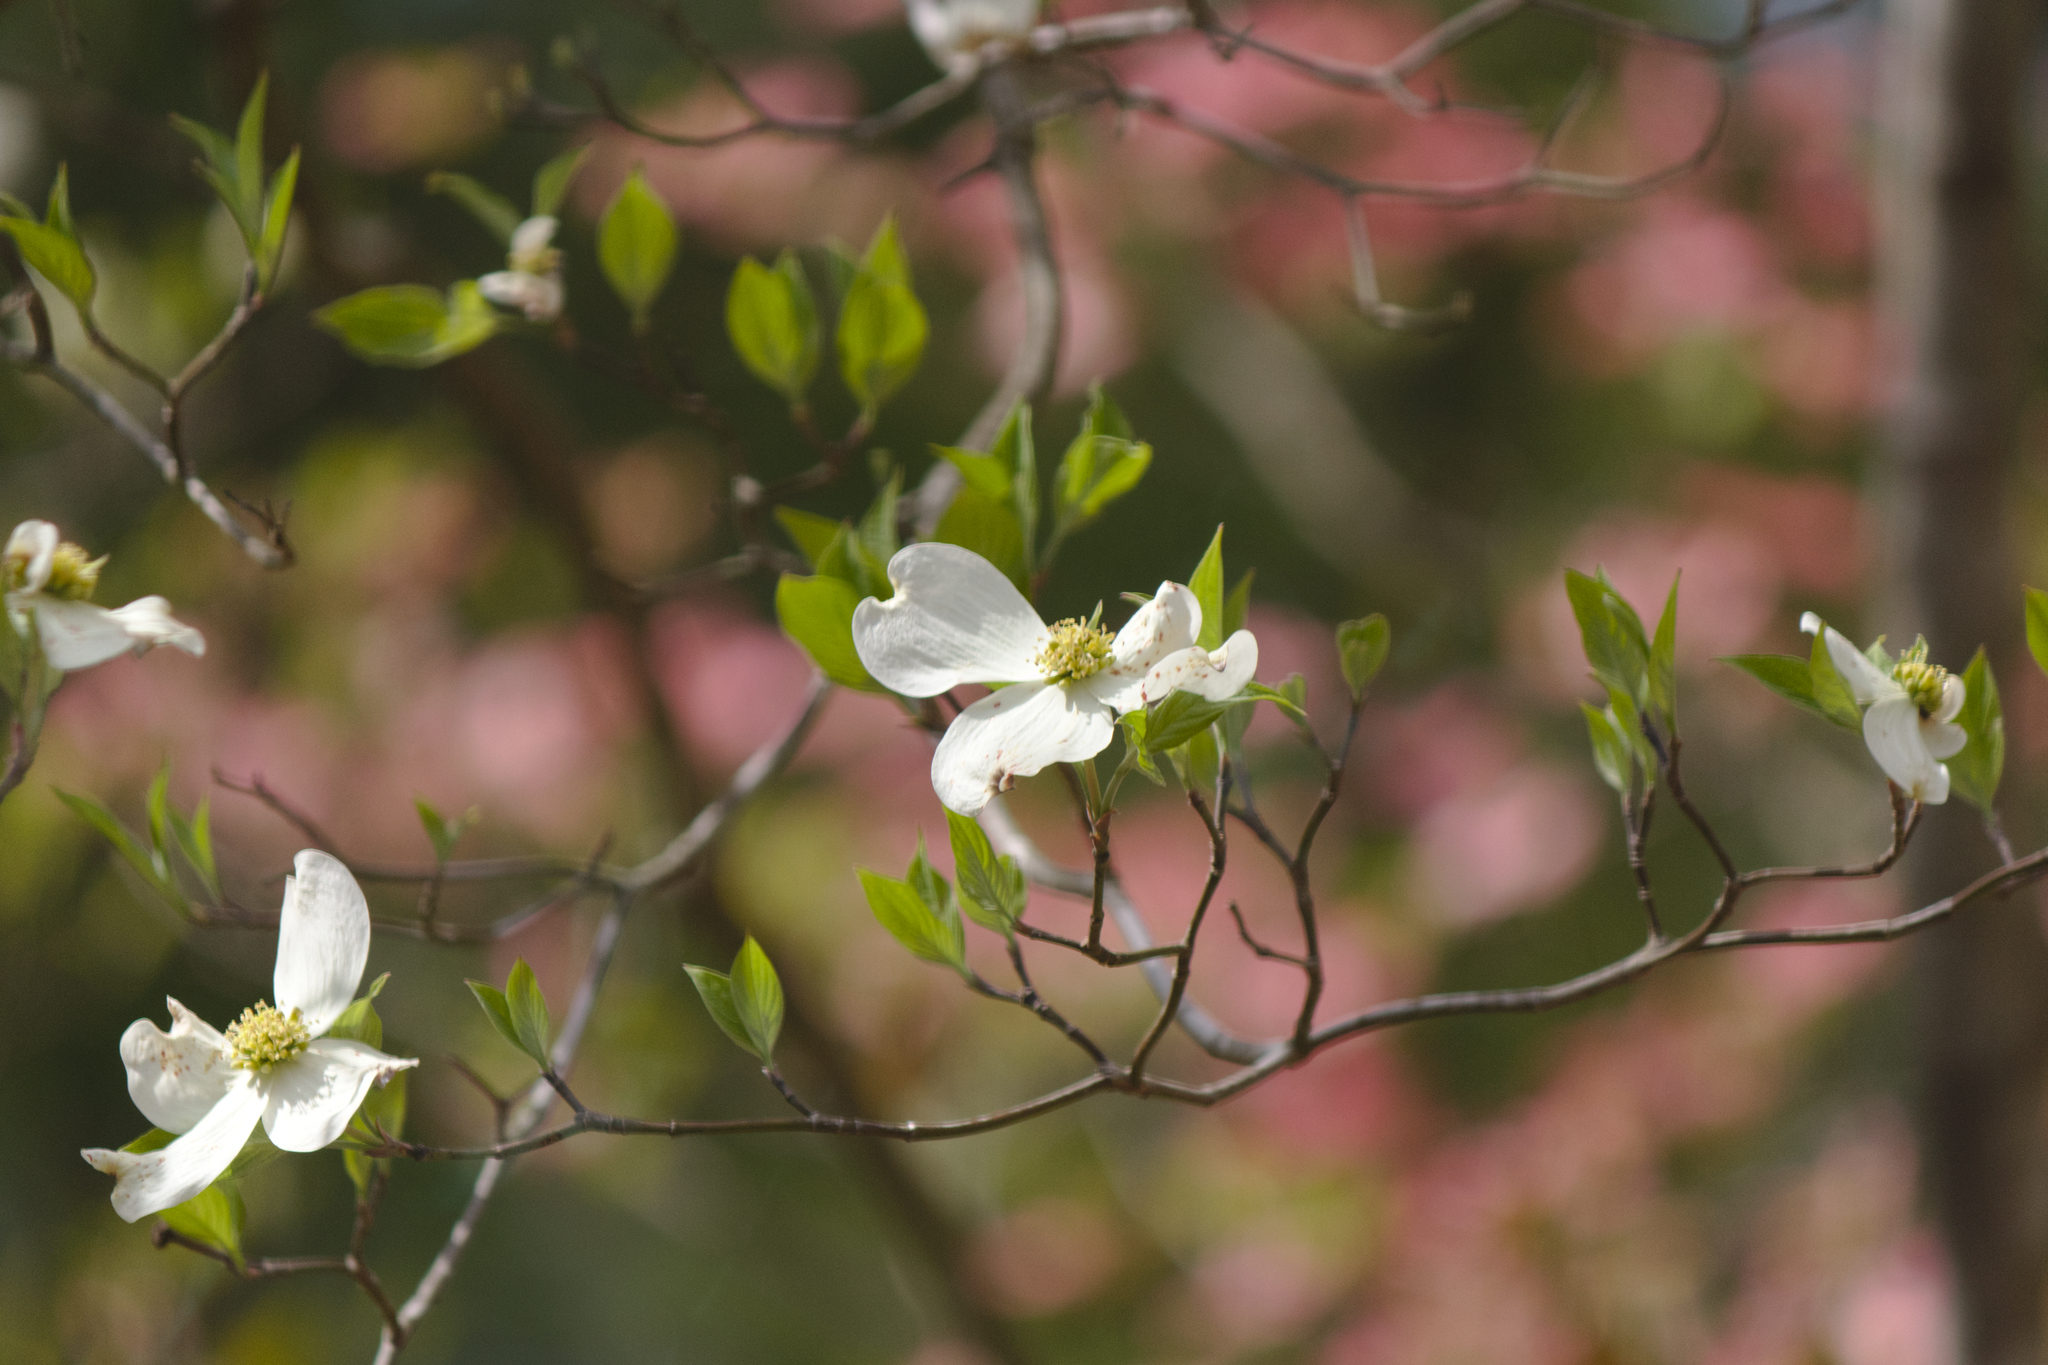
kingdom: Plantae
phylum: Tracheophyta
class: Magnoliopsida
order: Cornales
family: Cornaceae
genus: Cornus
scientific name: Cornus florida
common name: Flowering dogwood
